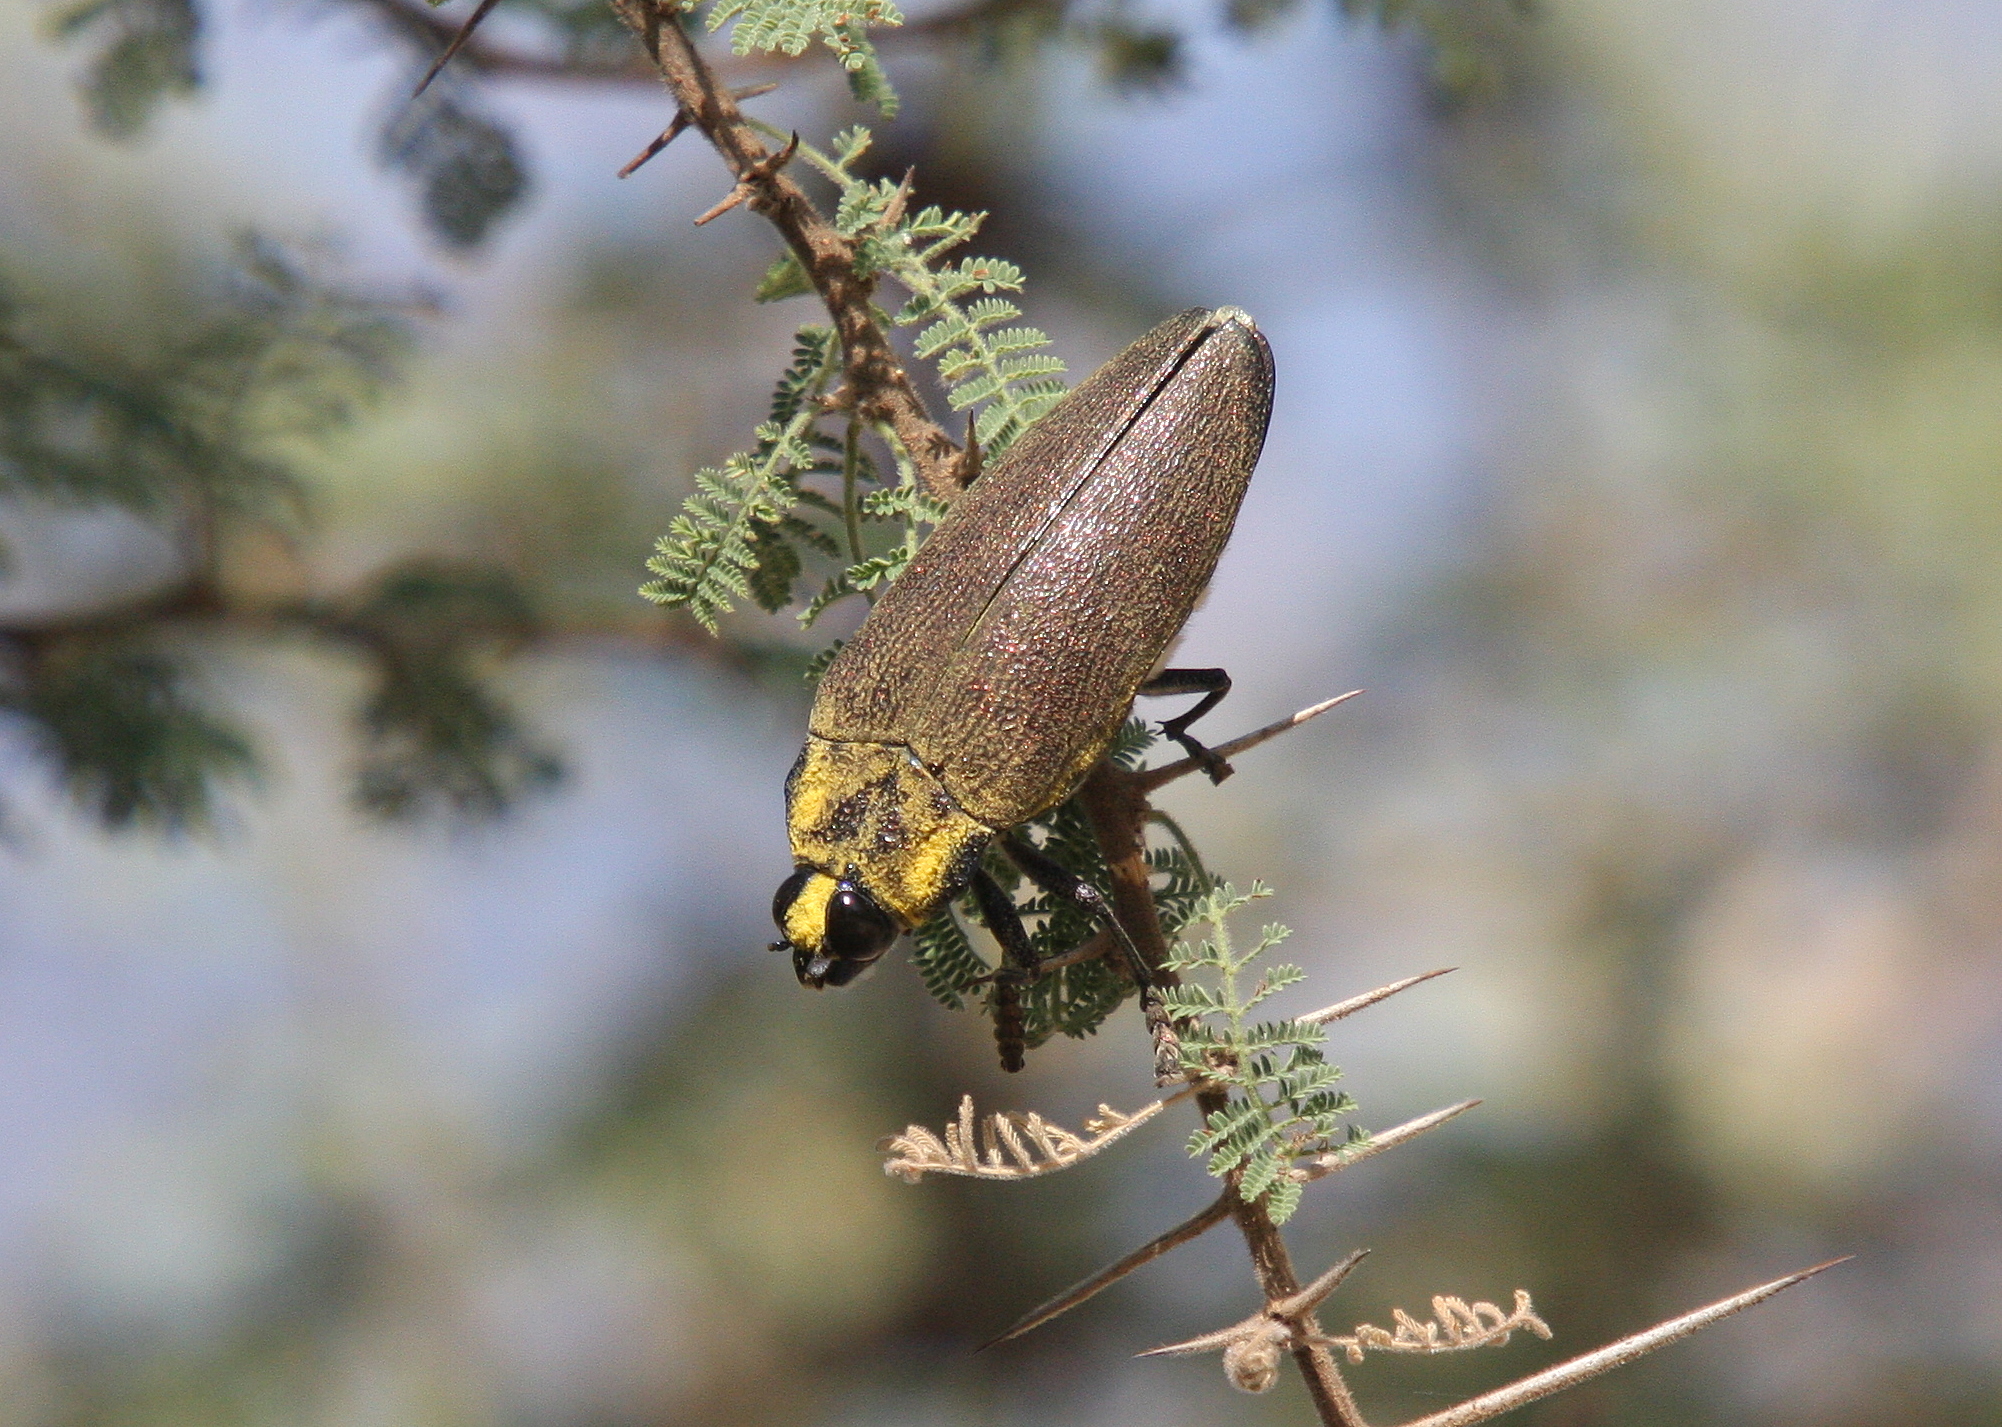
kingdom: Animalia
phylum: Arthropoda
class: Insecta
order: Coleoptera
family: Buprestidae
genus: Steraspis
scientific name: Steraspis speciosa
